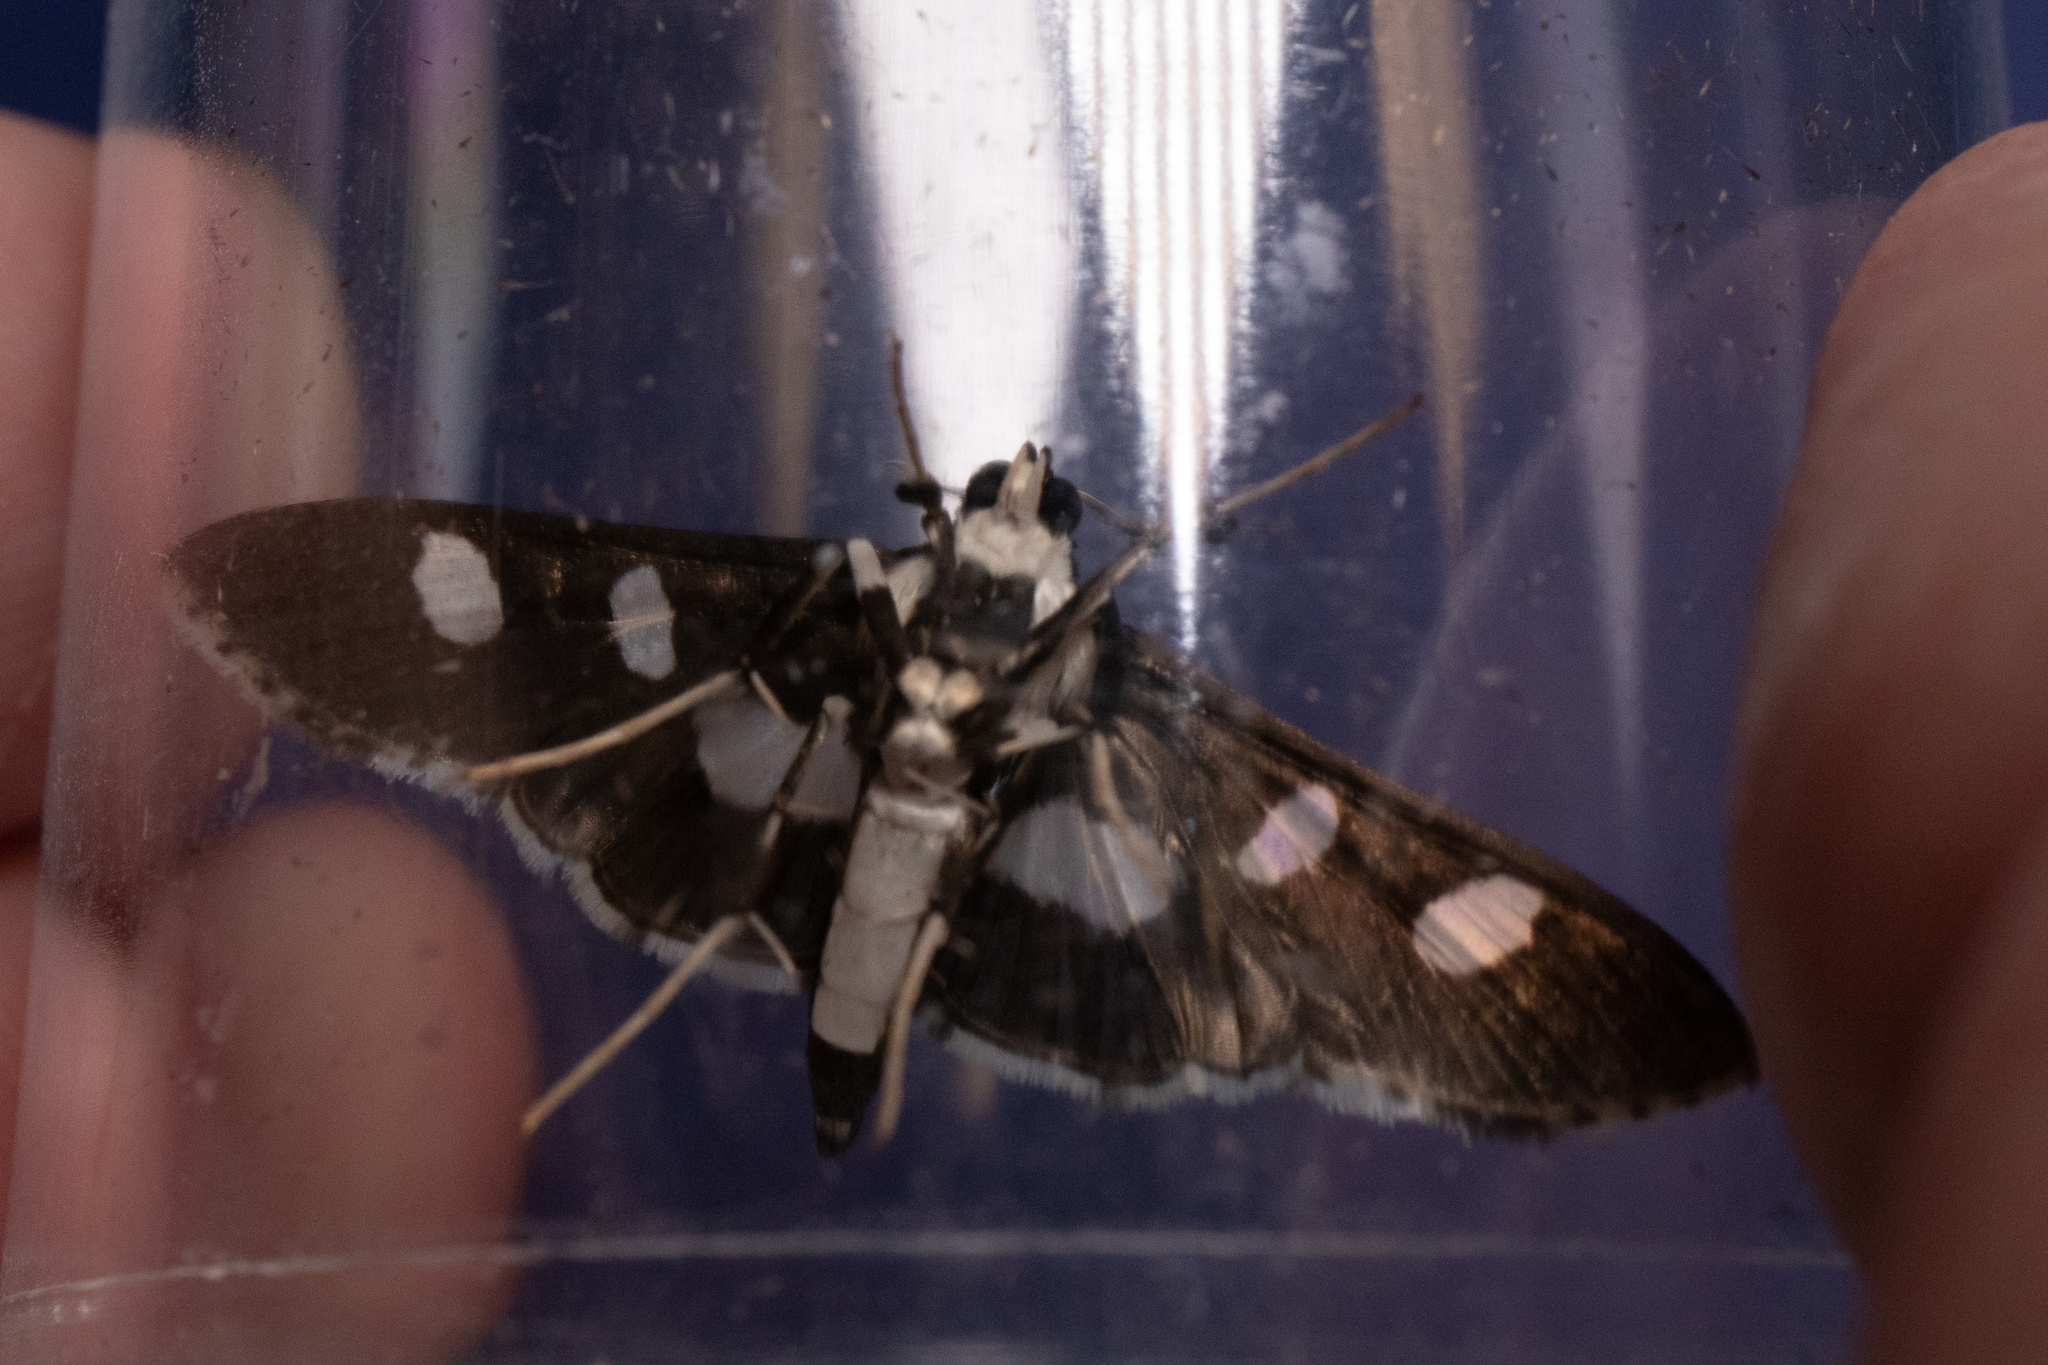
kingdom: Animalia
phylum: Arthropoda
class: Insecta
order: Lepidoptera
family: Crambidae
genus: Desmia
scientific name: Desmia funeralis
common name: Grape leaf folder moth
